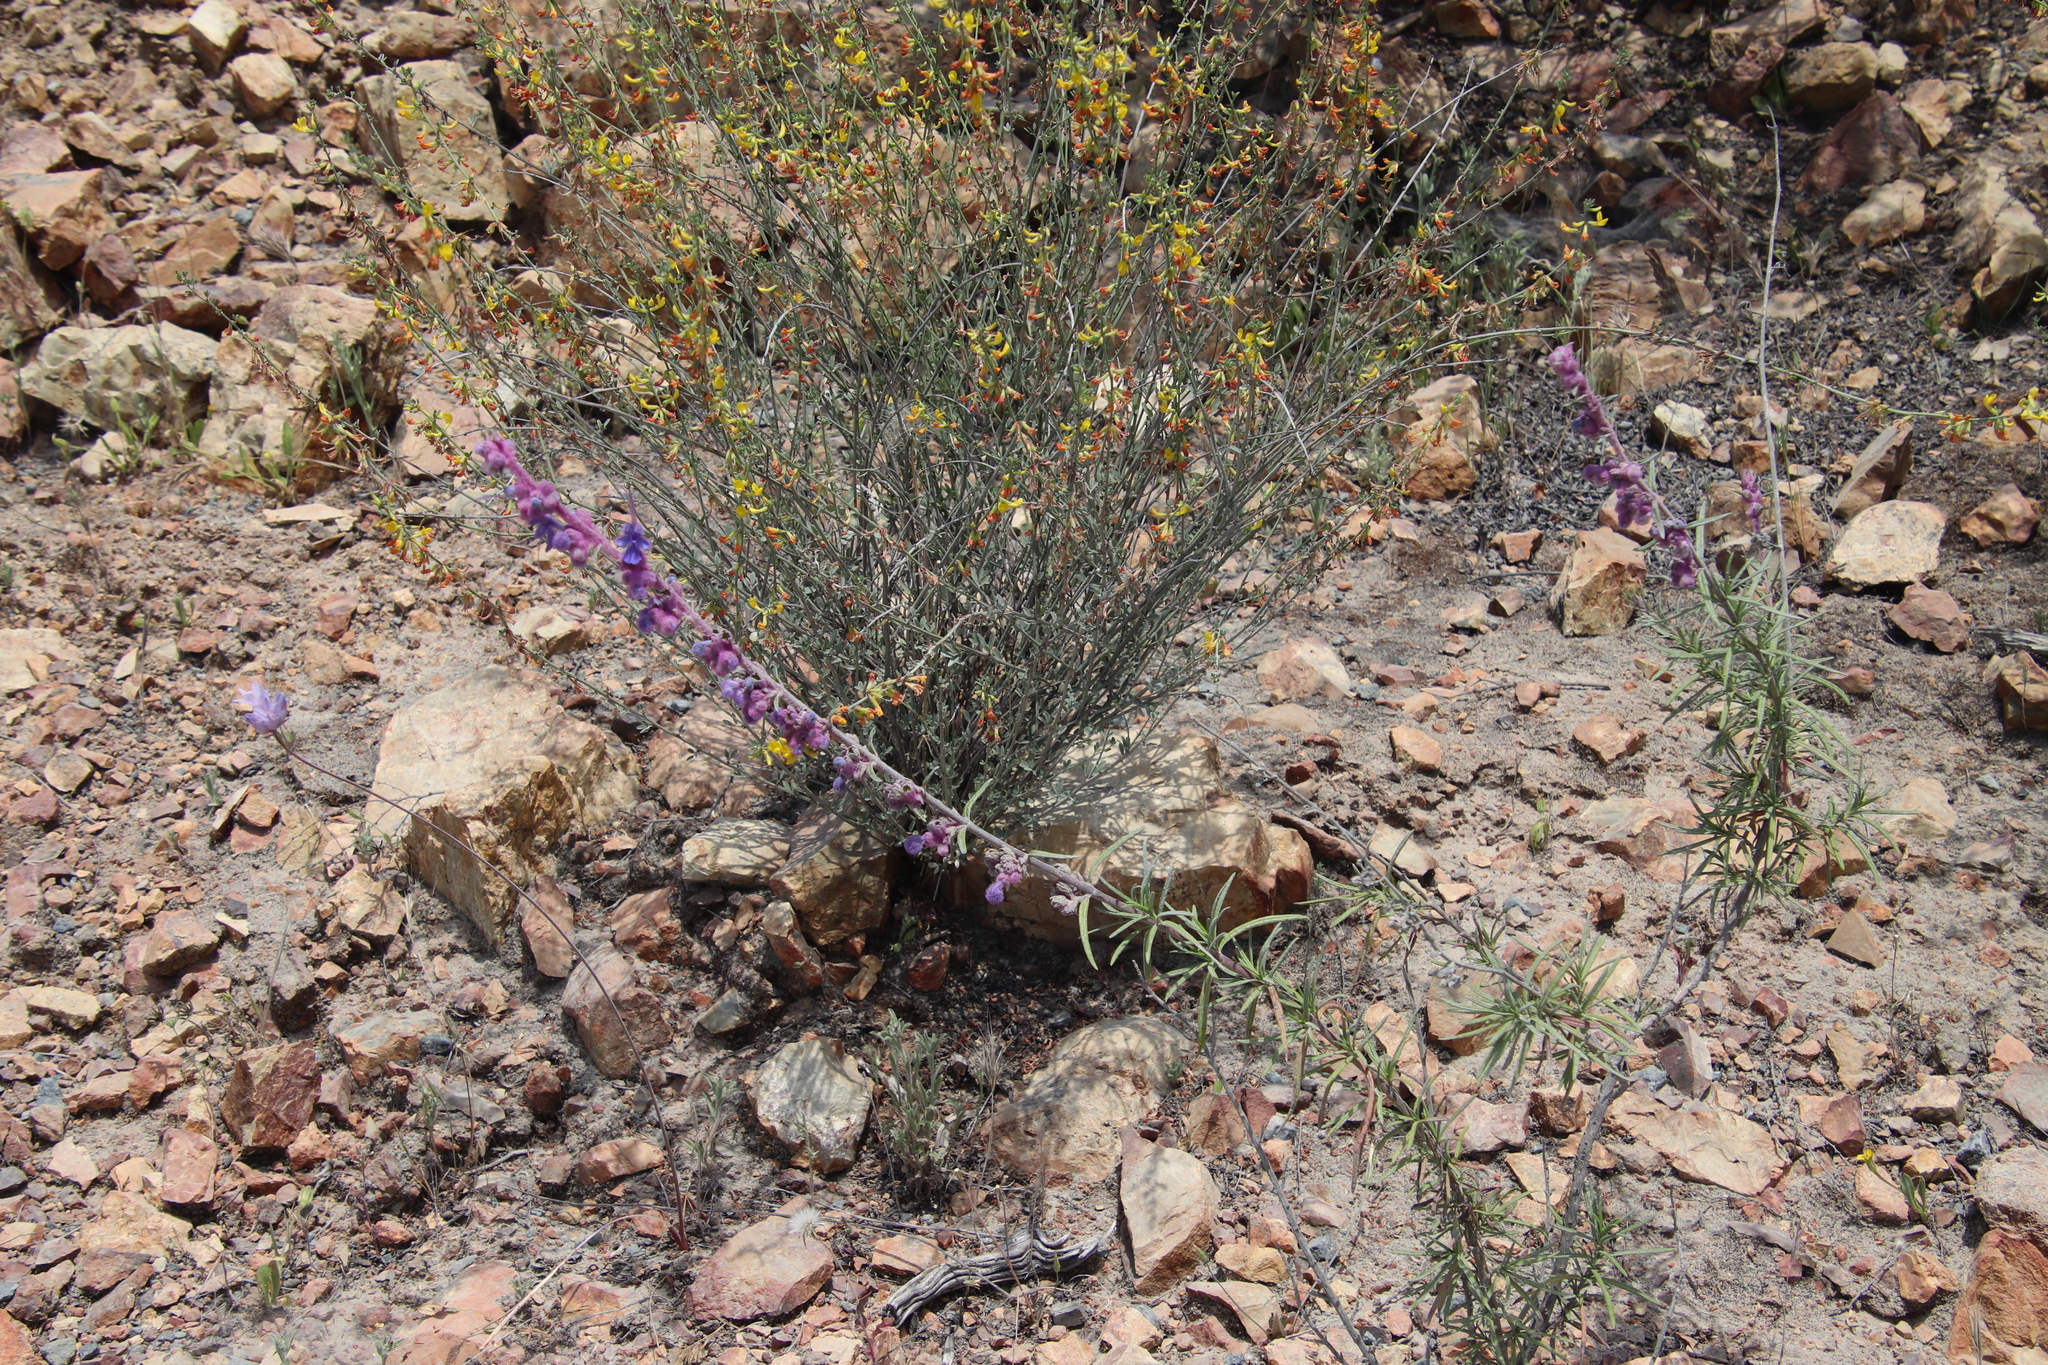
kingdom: Plantae
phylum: Tracheophyta
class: Magnoliopsida
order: Lamiales
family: Lamiaceae
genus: Trichostema
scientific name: Trichostema lanatum
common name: Woolly bluecurls
